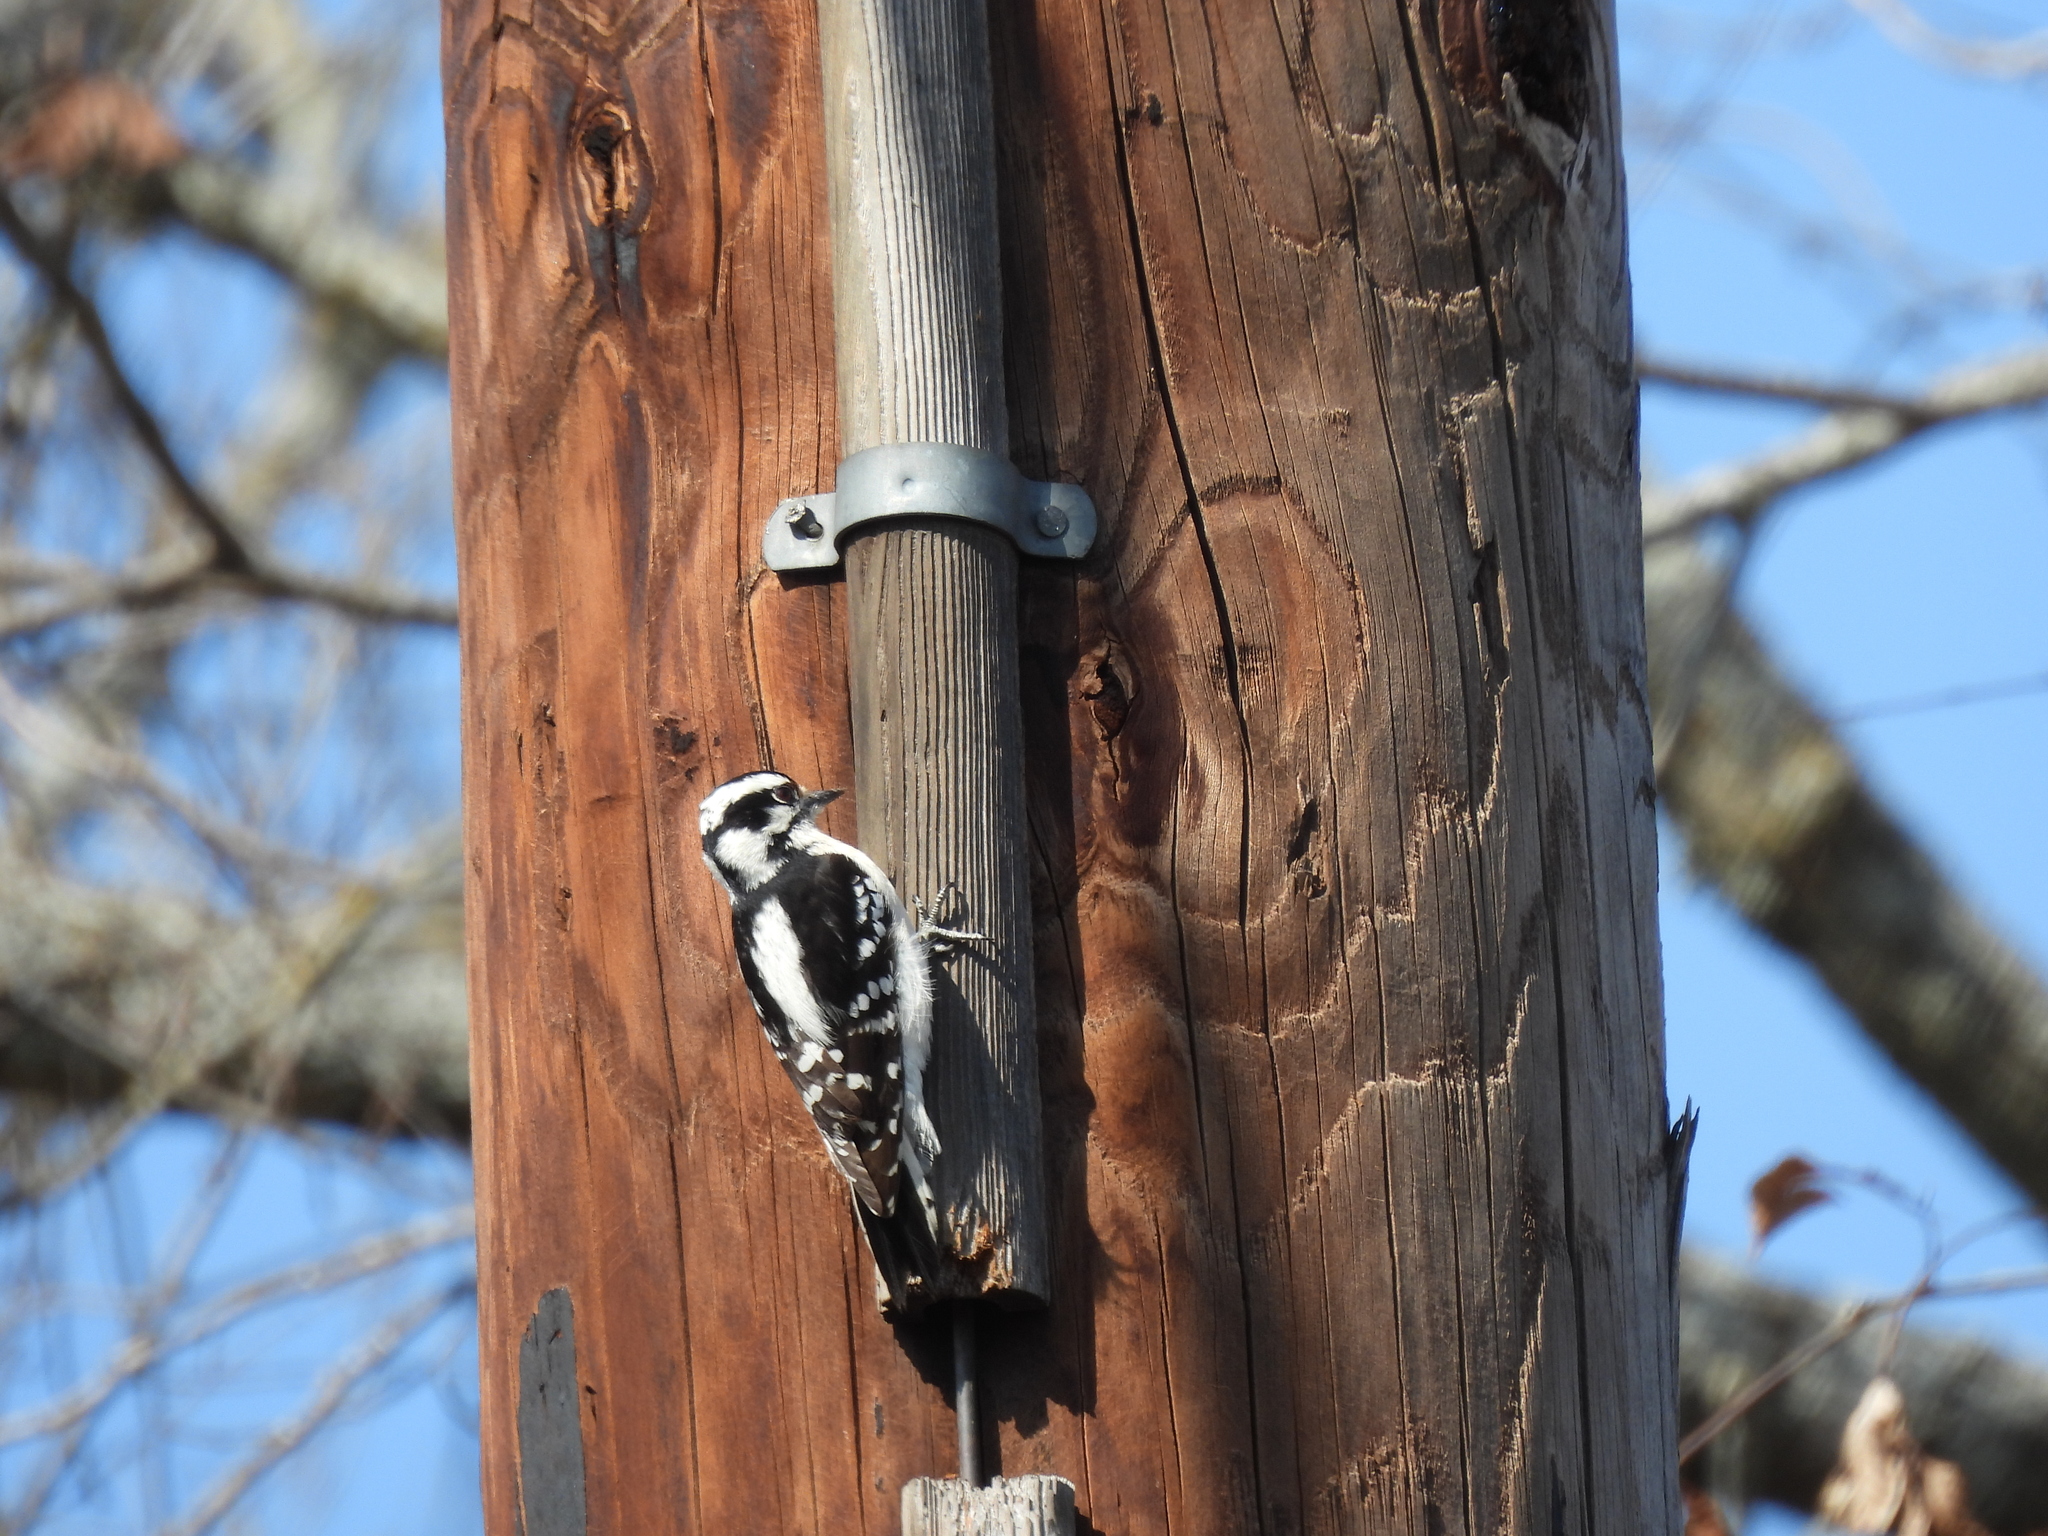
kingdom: Animalia
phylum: Chordata
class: Aves
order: Piciformes
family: Picidae
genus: Dryobates
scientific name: Dryobates pubescens
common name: Downy woodpecker
